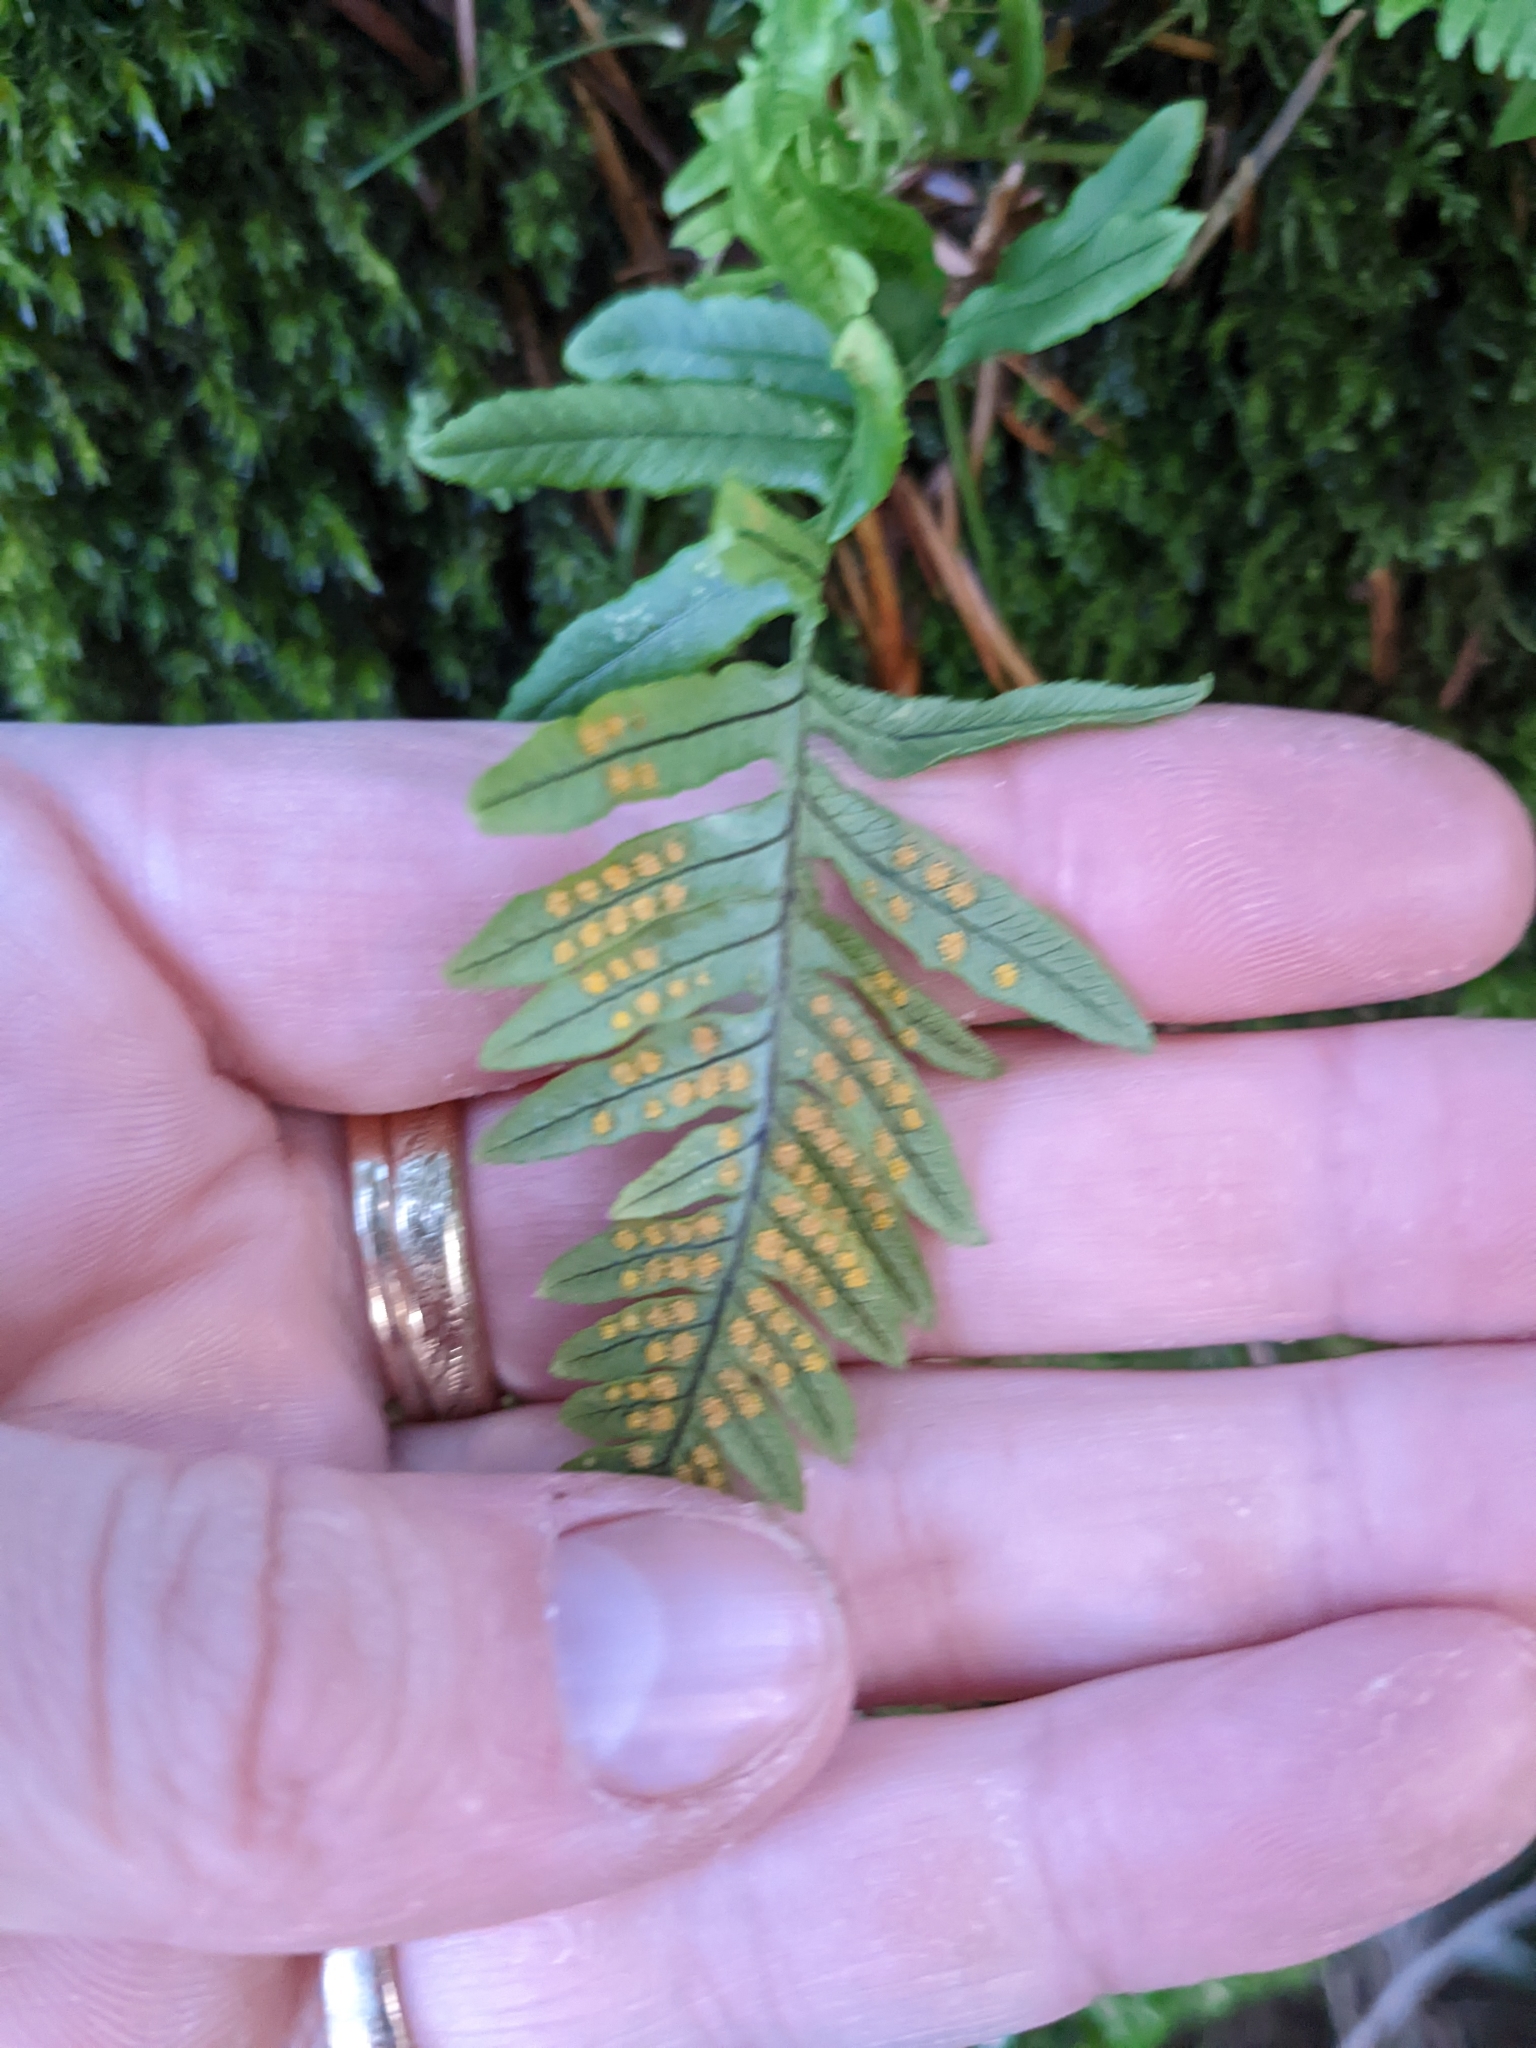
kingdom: Plantae
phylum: Tracheophyta
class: Polypodiopsida
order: Polypodiales
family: Polypodiaceae
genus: Polypodium
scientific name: Polypodium glycyrrhiza
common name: Licorice fern
